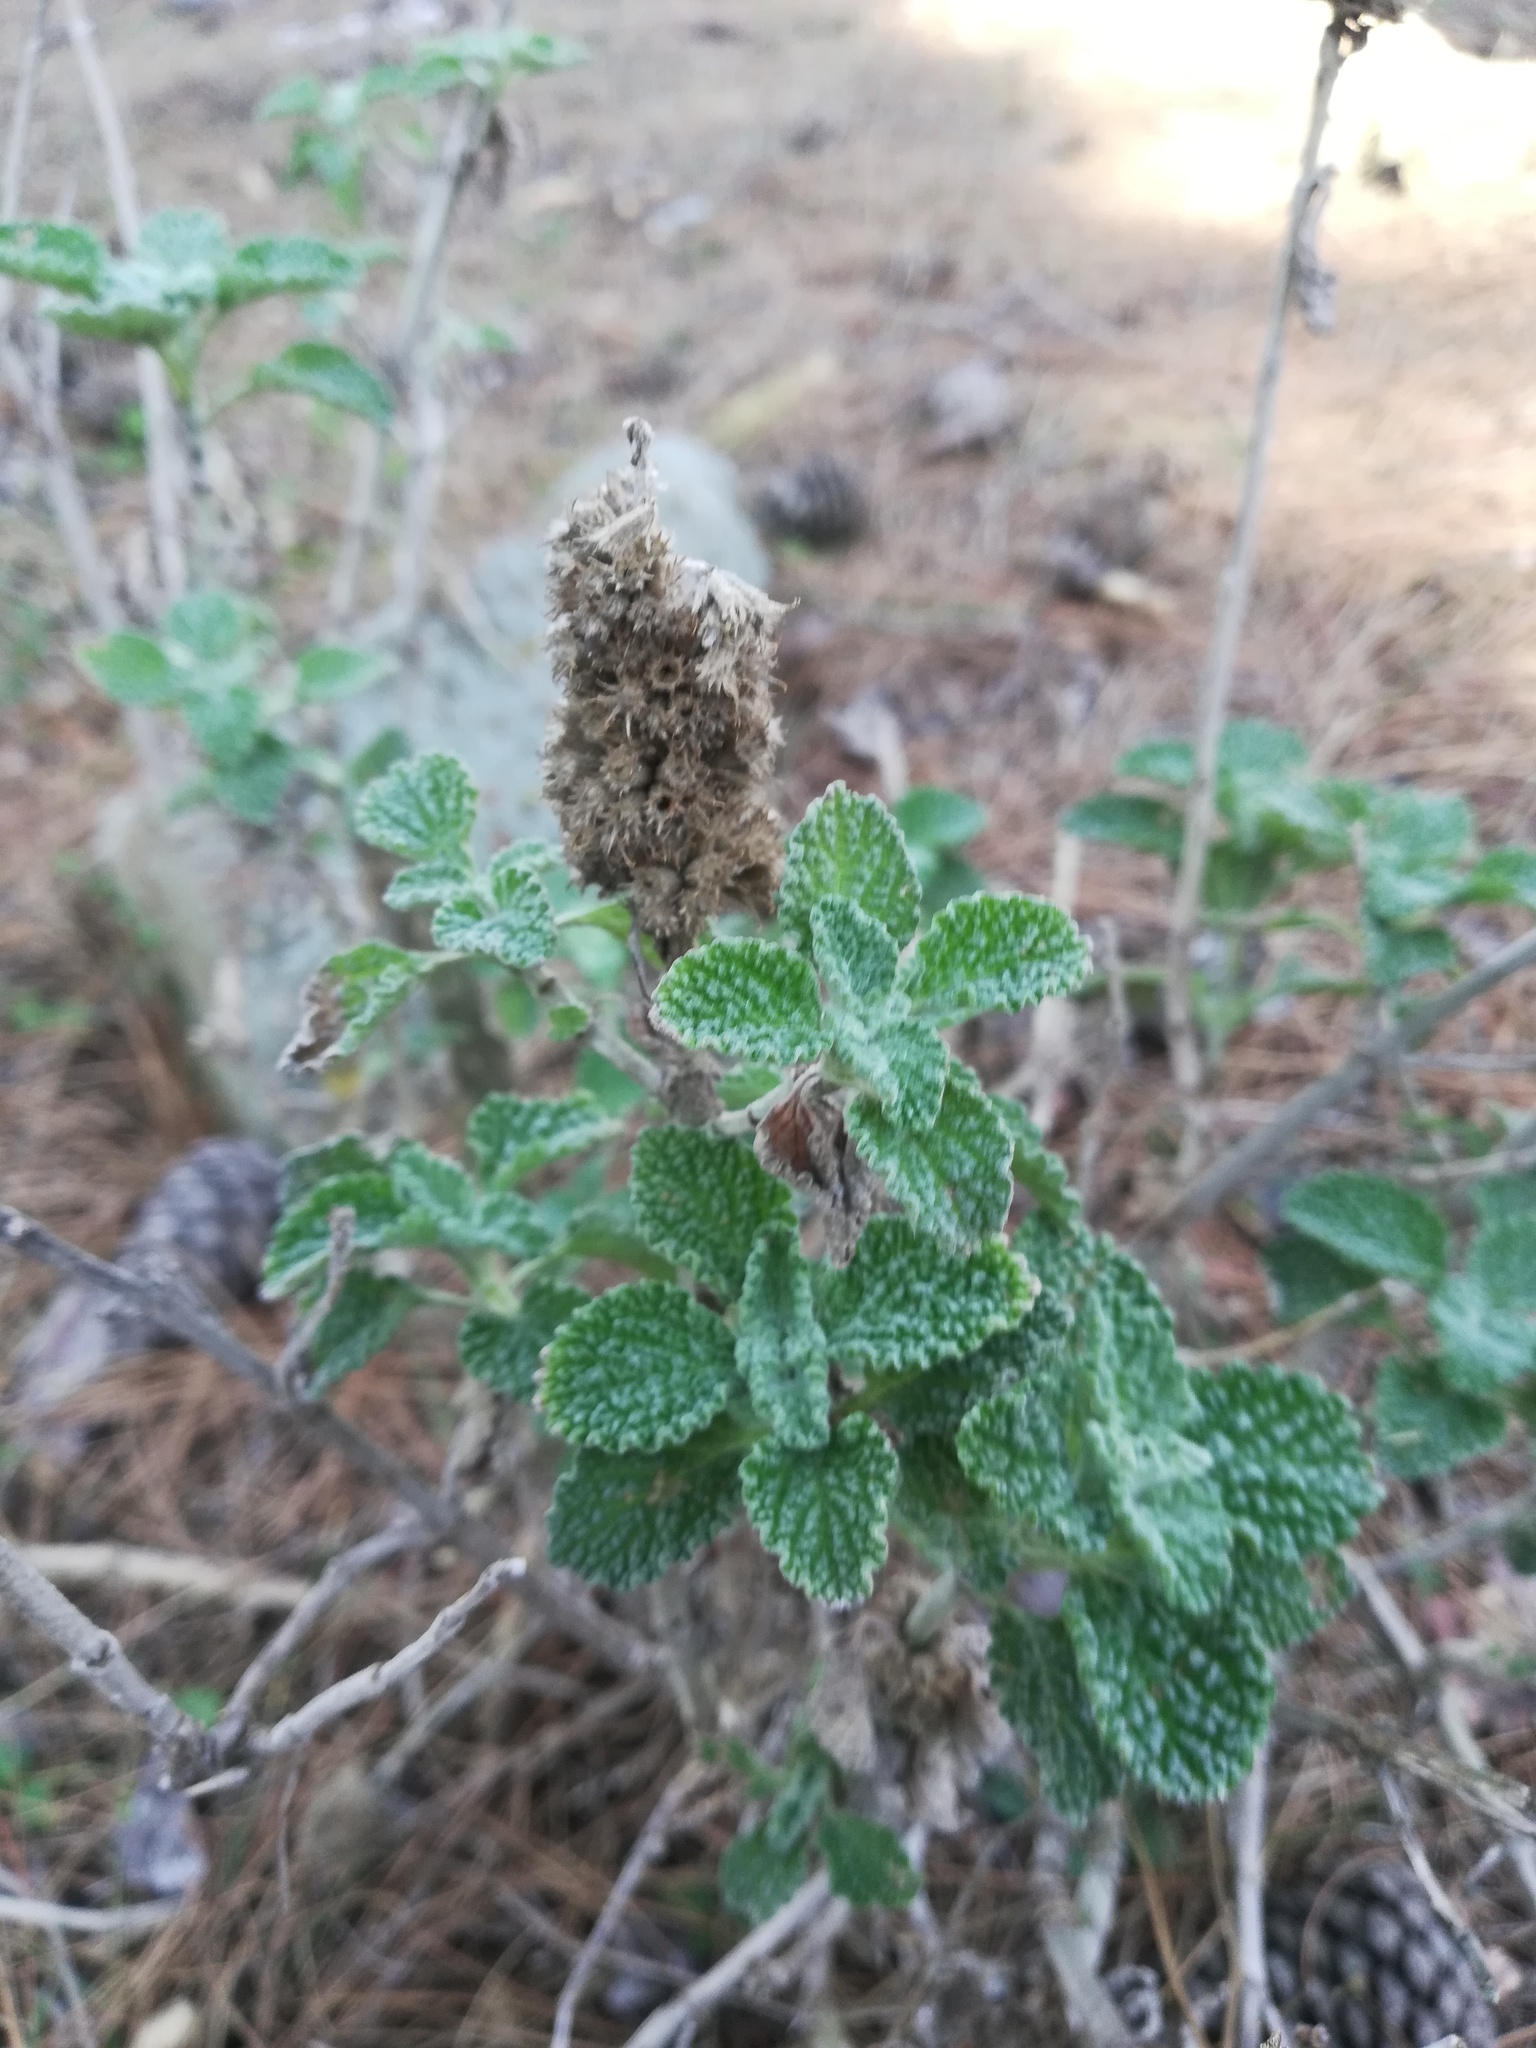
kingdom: Plantae
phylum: Tracheophyta
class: Magnoliopsida
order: Lamiales
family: Lamiaceae
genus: Marrubium
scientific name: Marrubium vulgare
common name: Horehound
